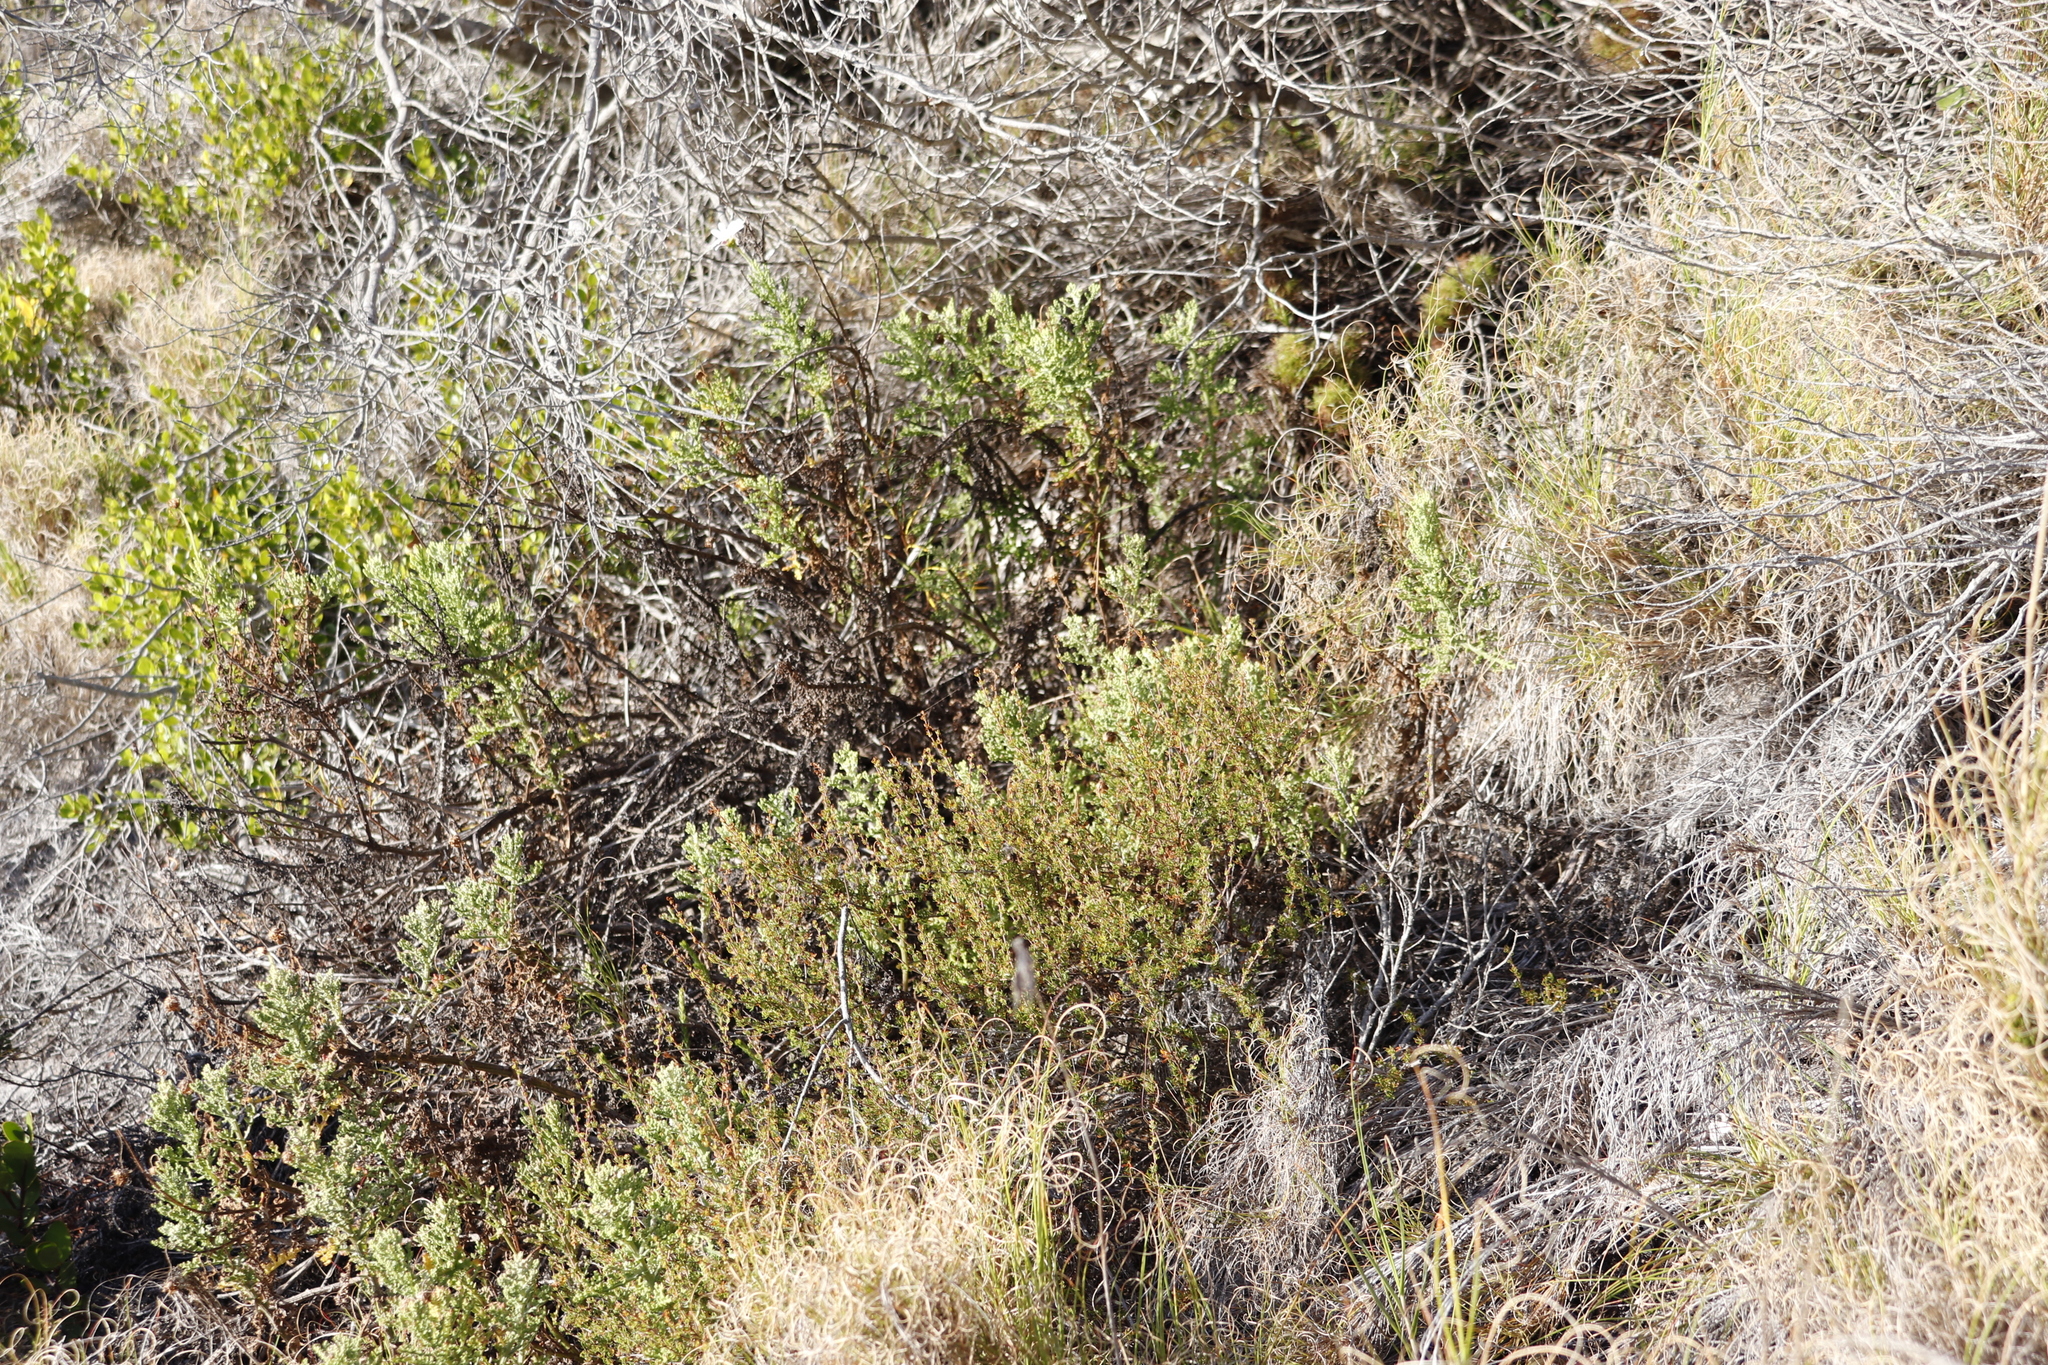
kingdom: Plantae
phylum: Tracheophyta
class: Magnoliopsida
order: Asterales
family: Asteraceae
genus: Arctotis
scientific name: Arctotis aspera
